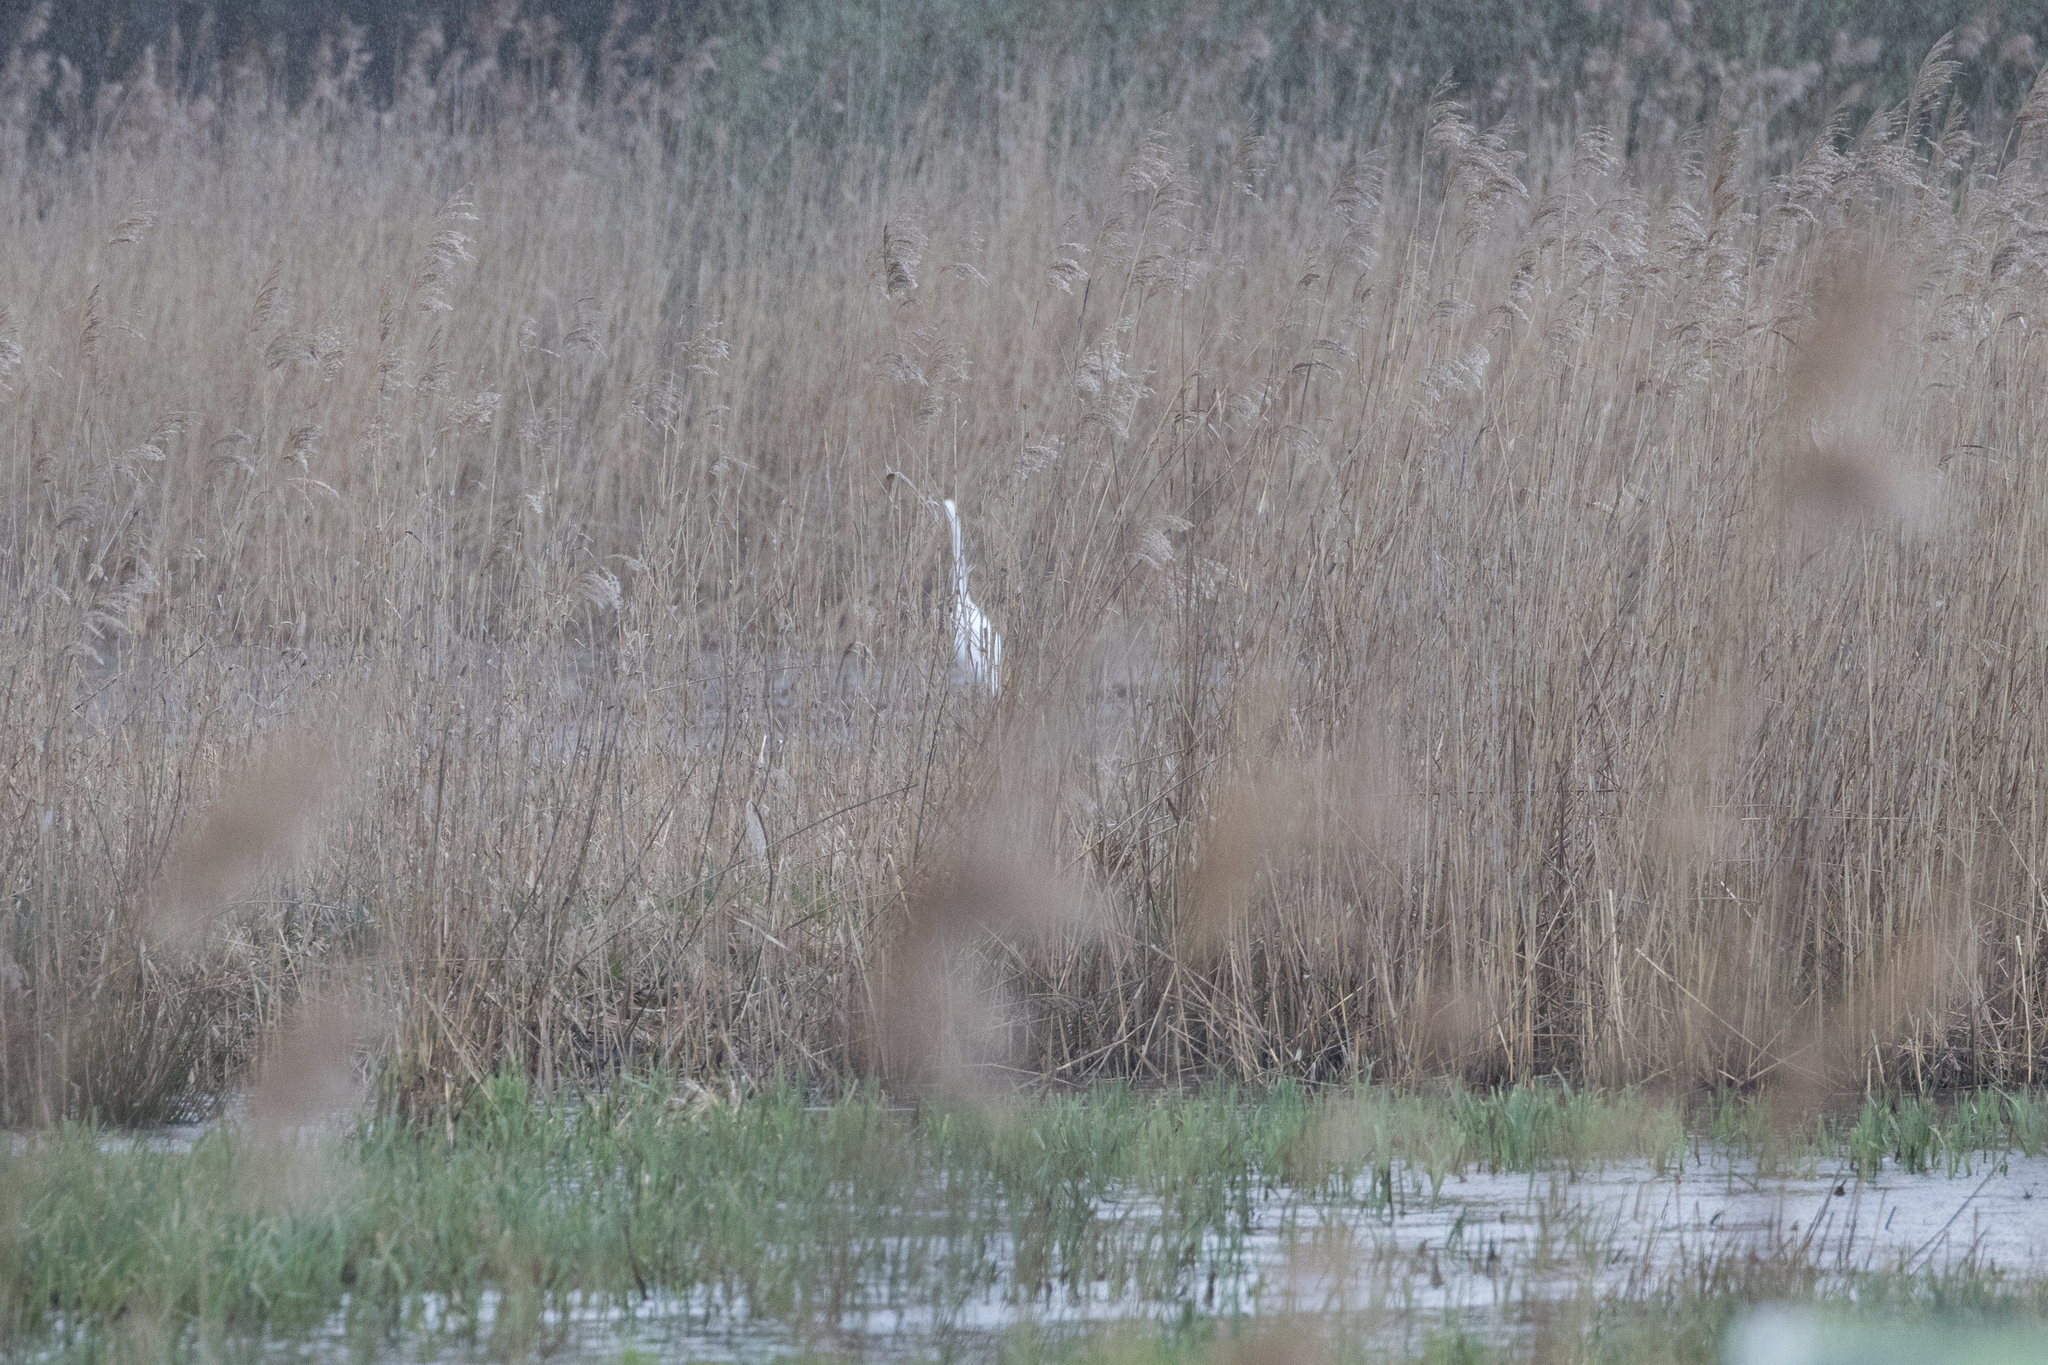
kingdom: Animalia
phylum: Chordata
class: Aves
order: Pelecaniformes
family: Ardeidae
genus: Ardea
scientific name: Ardea alba
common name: Great egret
